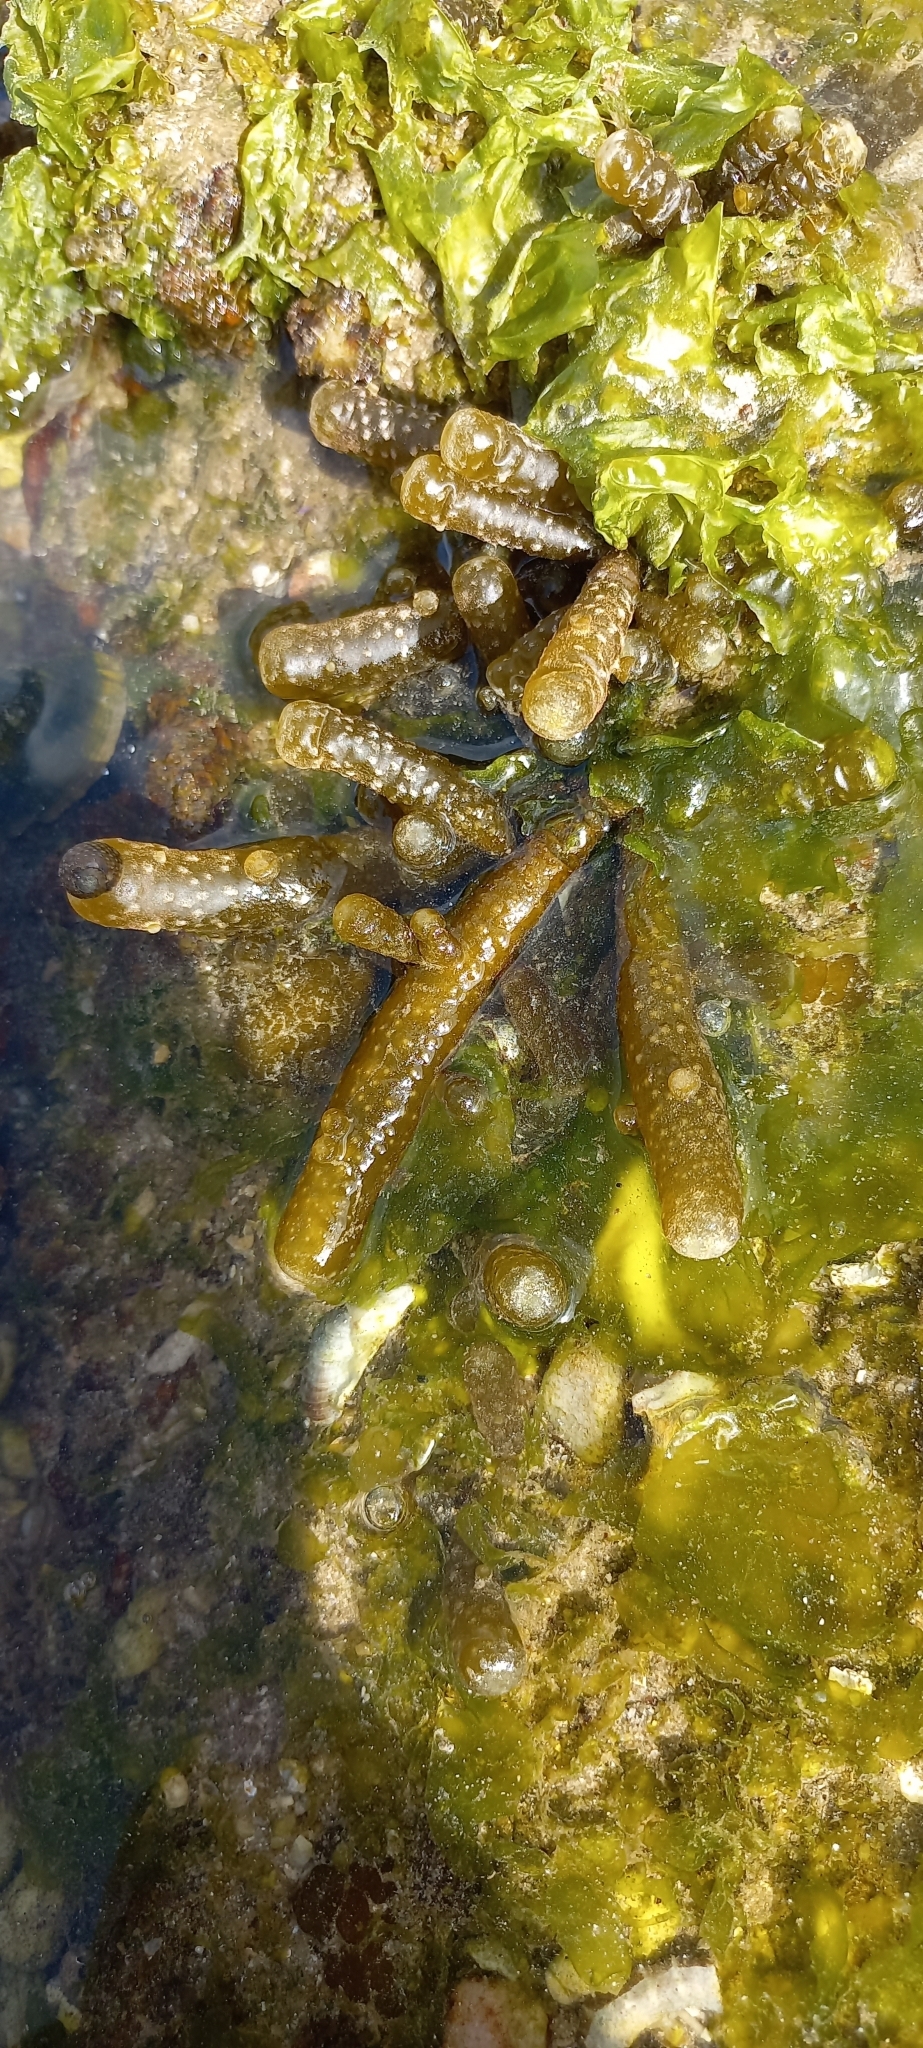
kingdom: Chromista
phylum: Ochrophyta
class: Phaeophyceae
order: Scytothamnales
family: Splachnidiaceae
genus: Splachnidium
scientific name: Splachnidium rugosum
